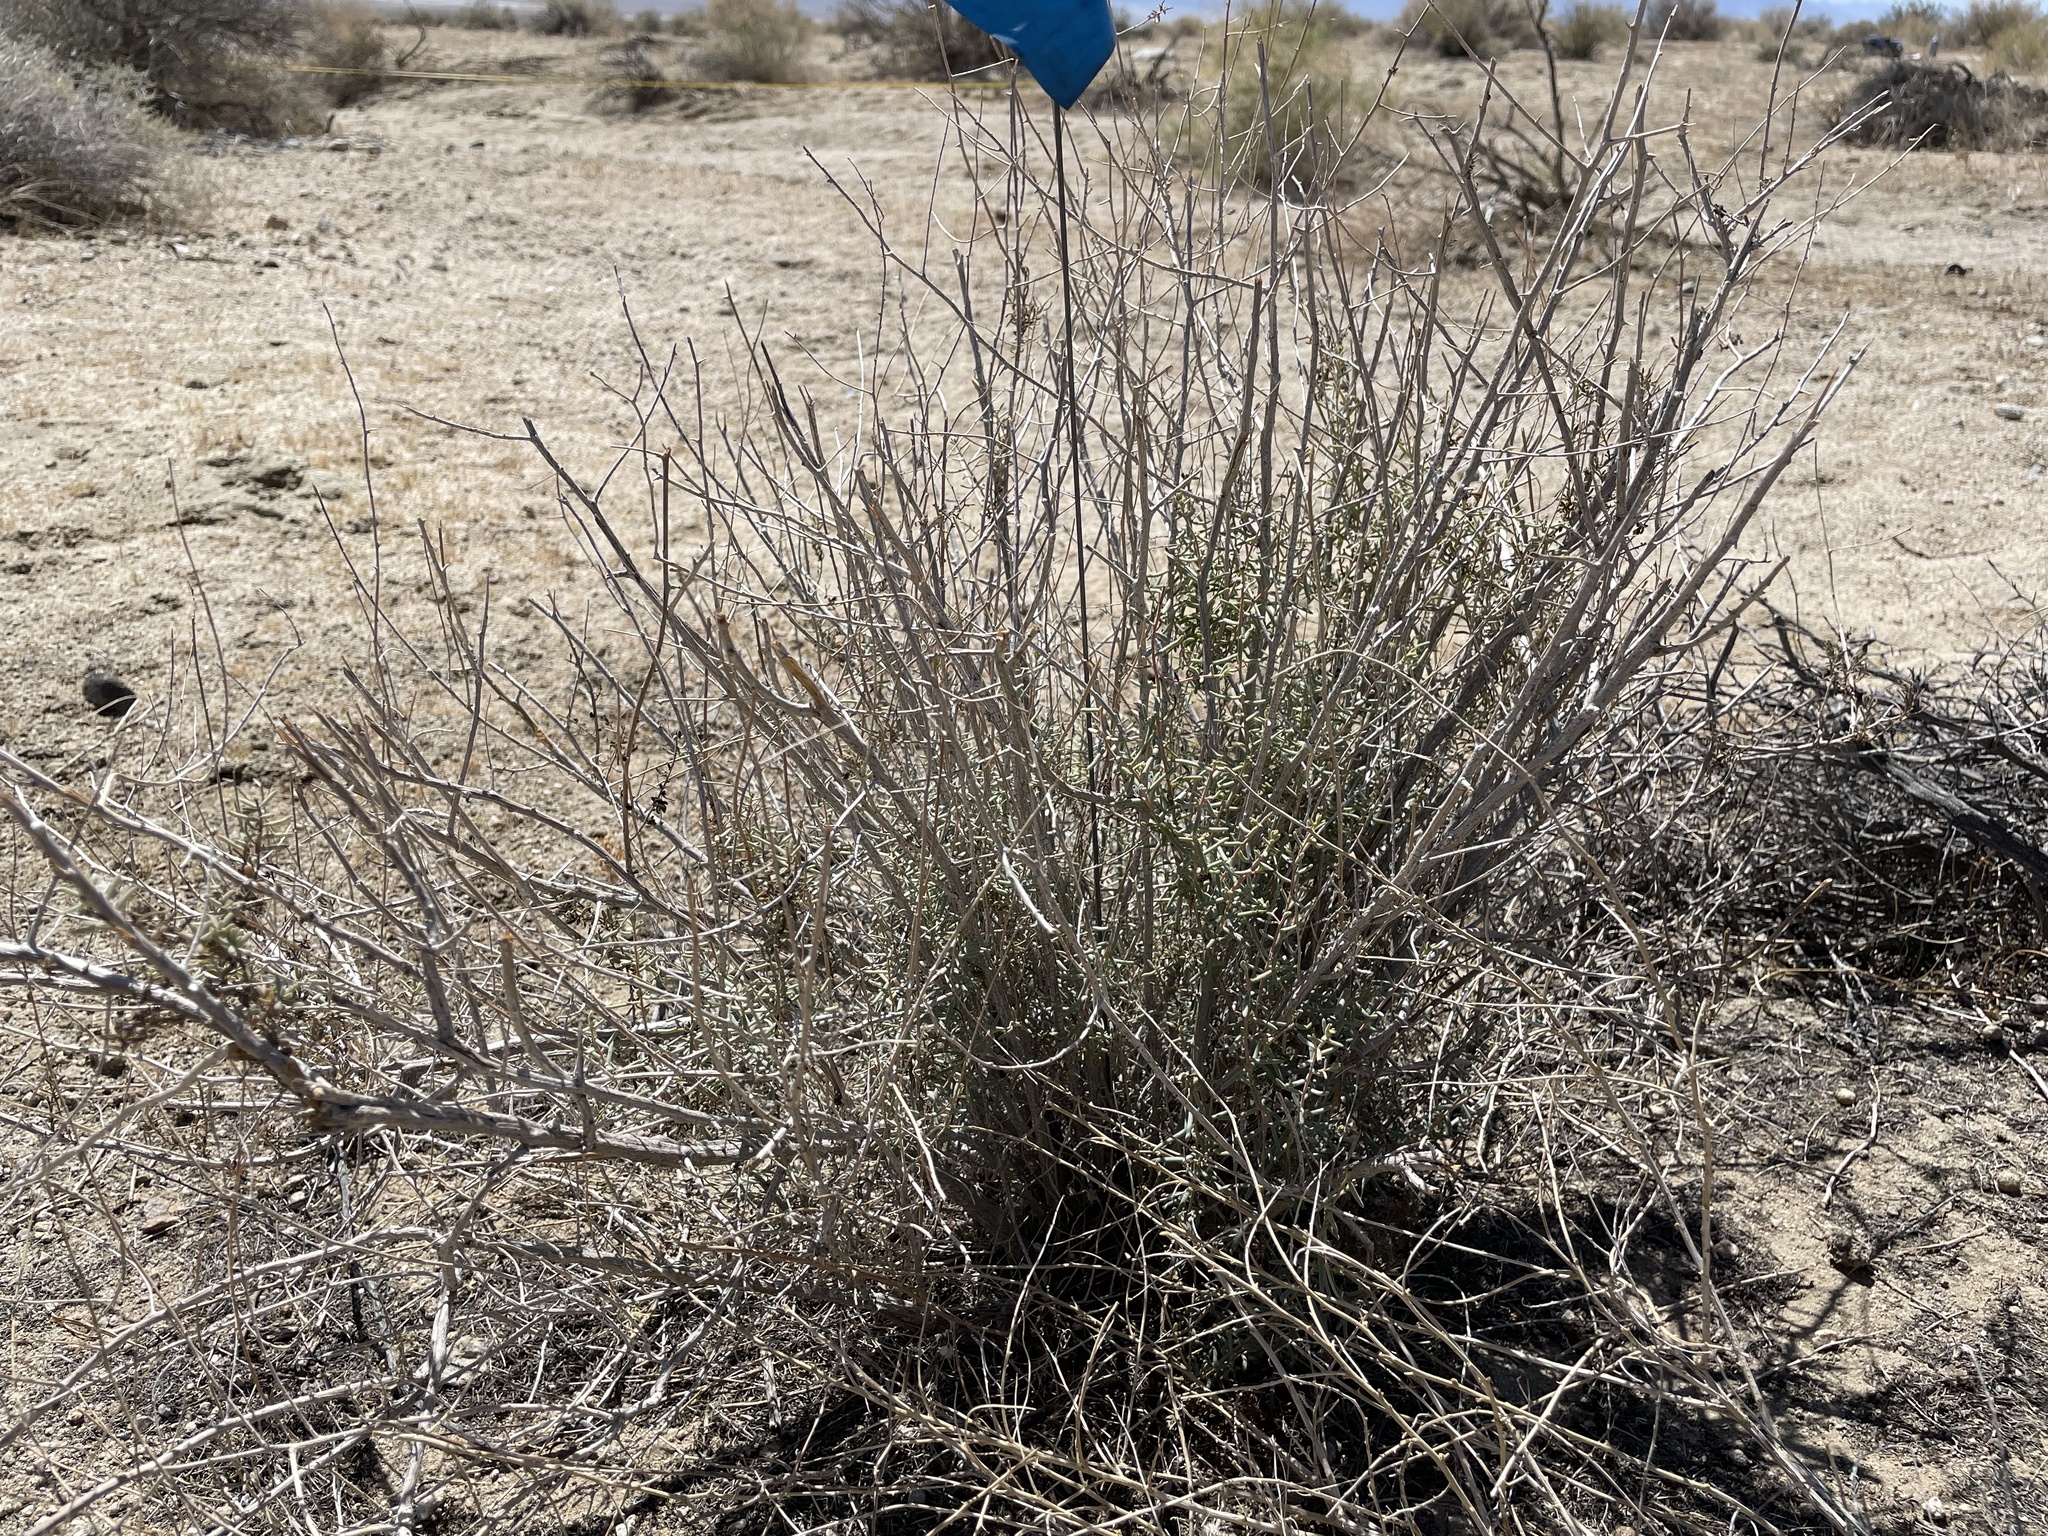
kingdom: Plantae
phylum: Tracheophyta
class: Magnoliopsida
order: Caryophyllales
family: Amaranthaceae
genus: Suaeda
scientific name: Suaeda nigra
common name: Bush seepweed
